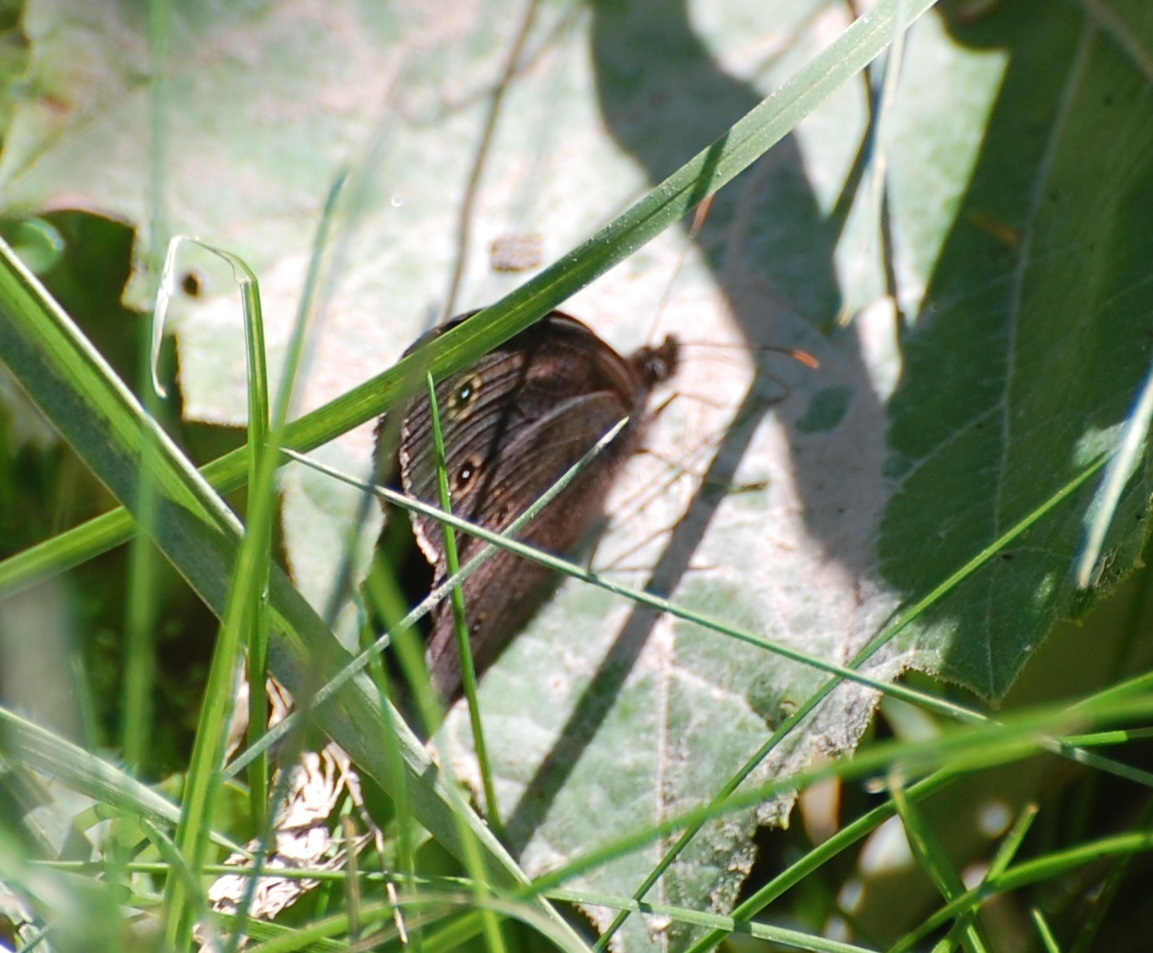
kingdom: Animalia
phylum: Arthropoda
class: Insecta
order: Lepidoptera
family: Nymphalidae
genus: Cercyonis
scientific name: Cercyonis pegala
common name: Common wood-nymph
